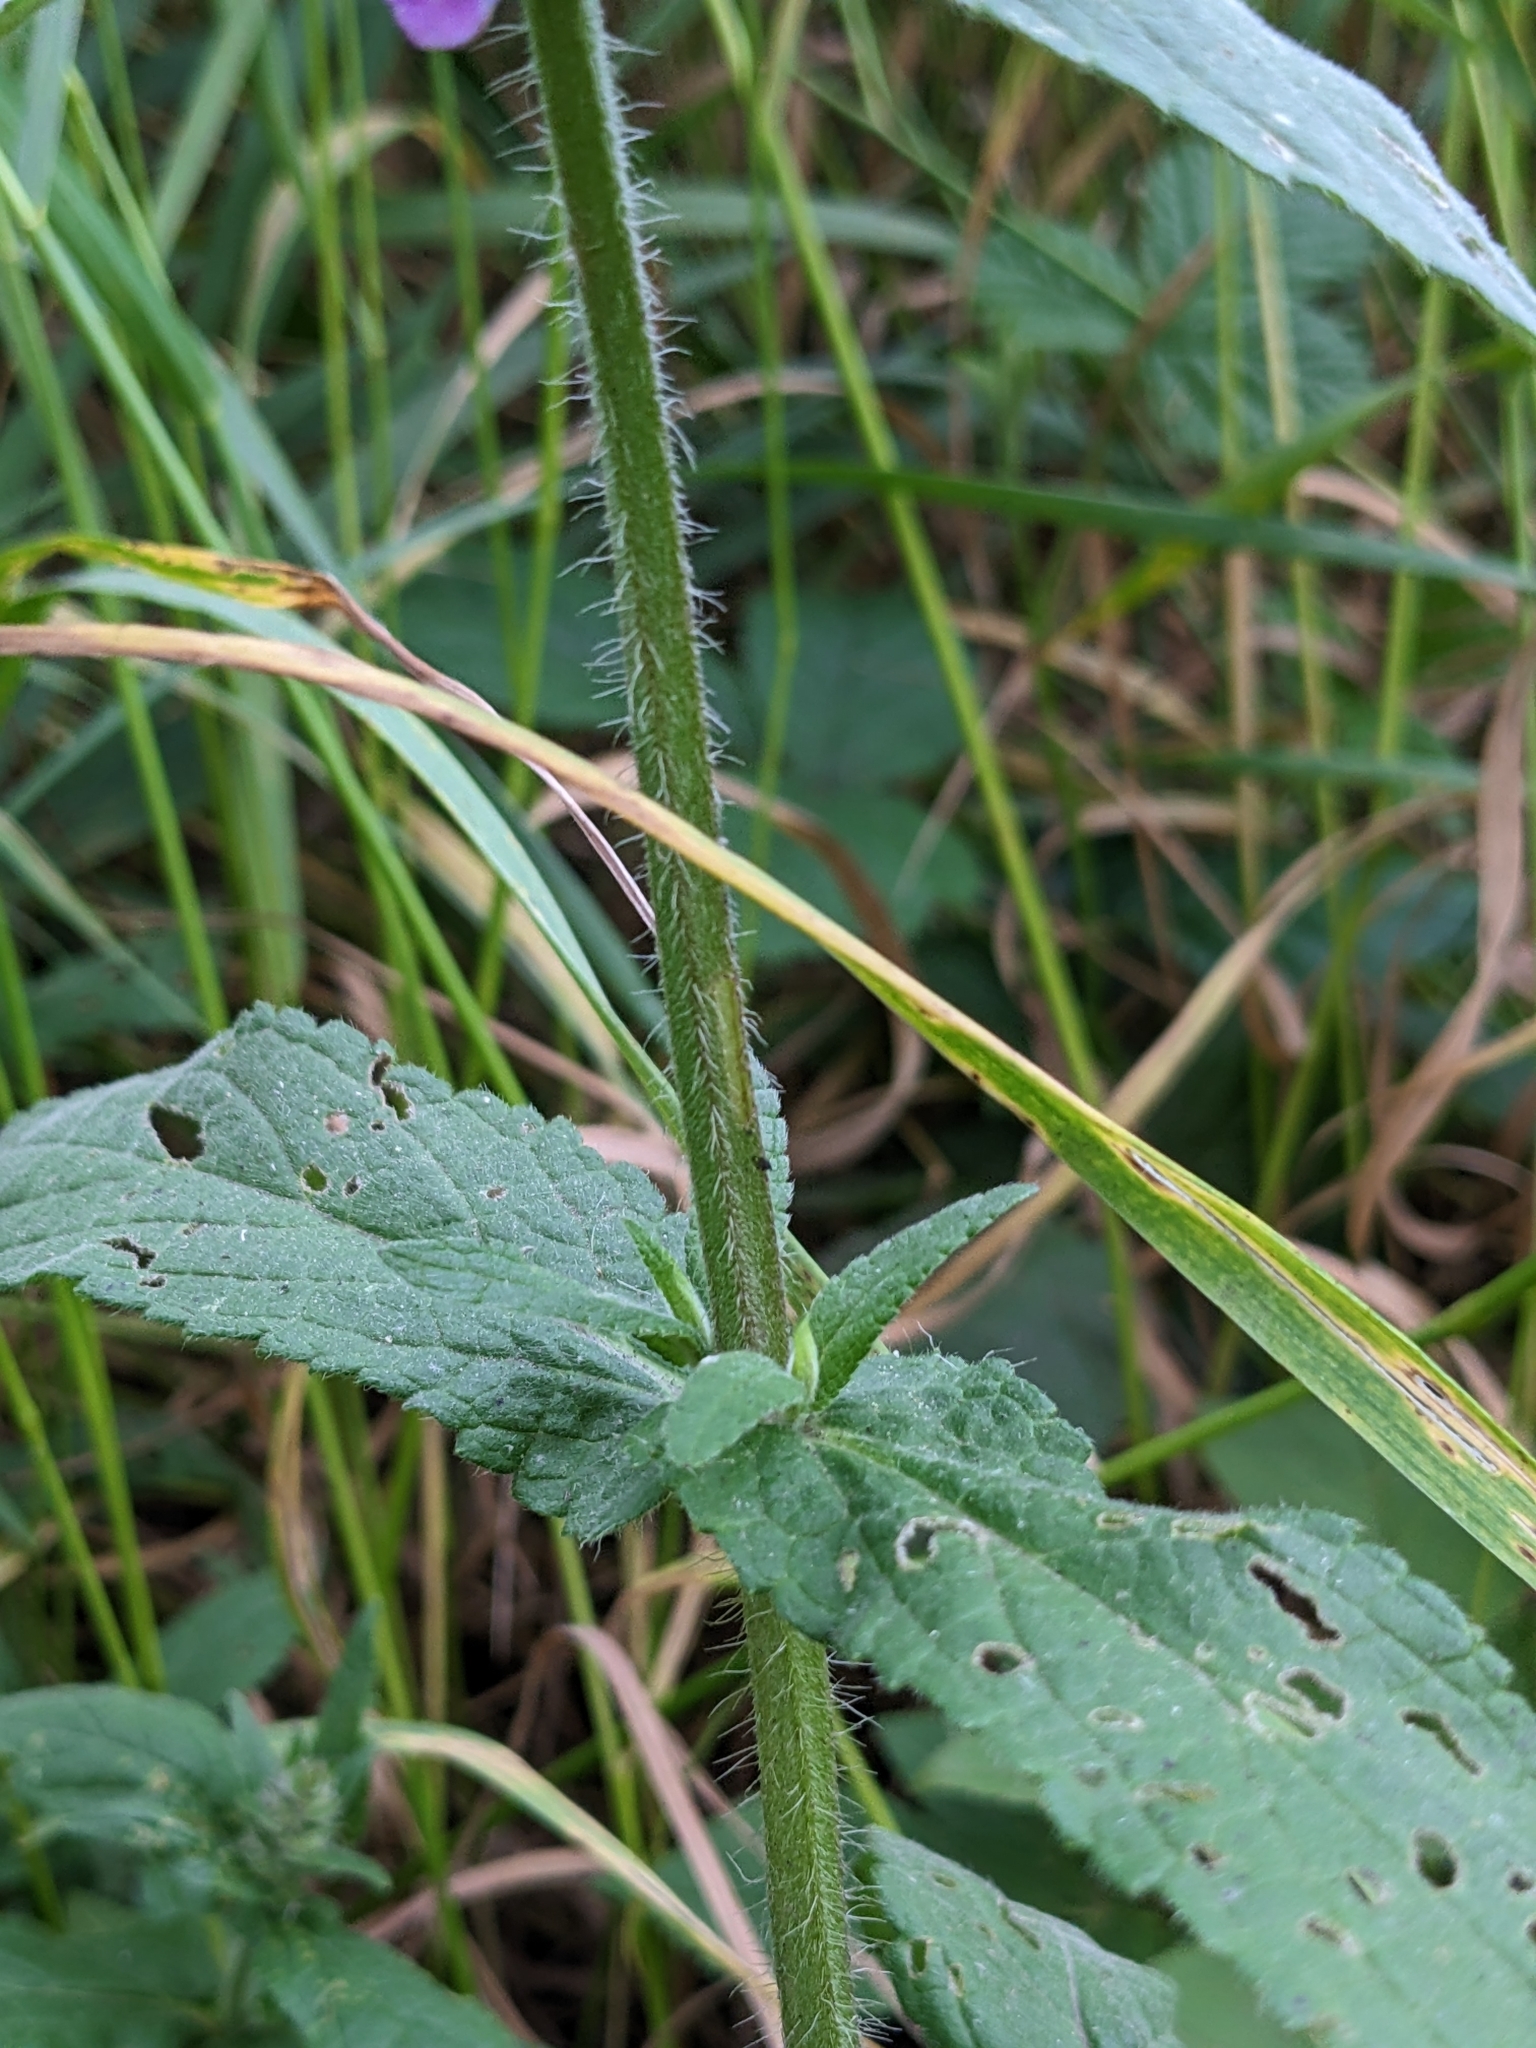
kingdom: Plantae
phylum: Tracheophyta
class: Magnoliopsida
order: Lamiales
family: Lamiaceae
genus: Stachys
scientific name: Stachys palustris
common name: Marsh woundwort
